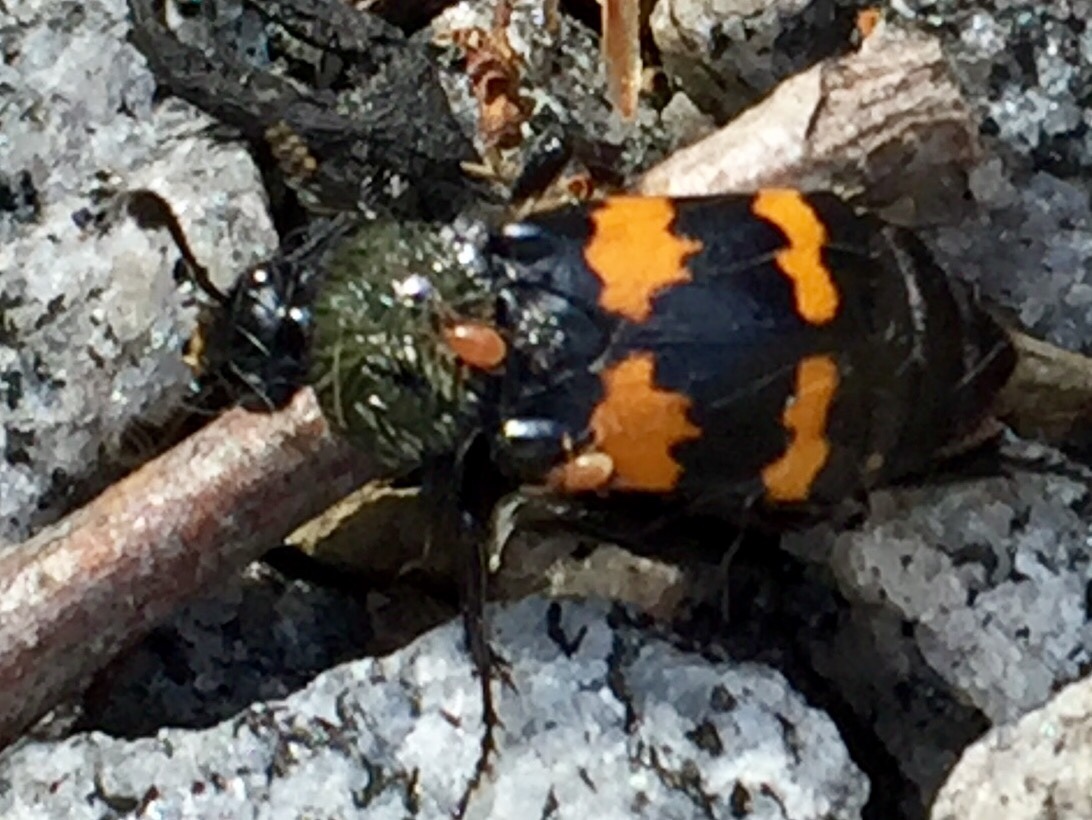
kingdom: Animalia
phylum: Arthropoda
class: Insecta
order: Coleoptera
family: Staphylinidae
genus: Nicrophorus
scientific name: Nicrophorus tomentosus
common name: Tomentose burying beetle
